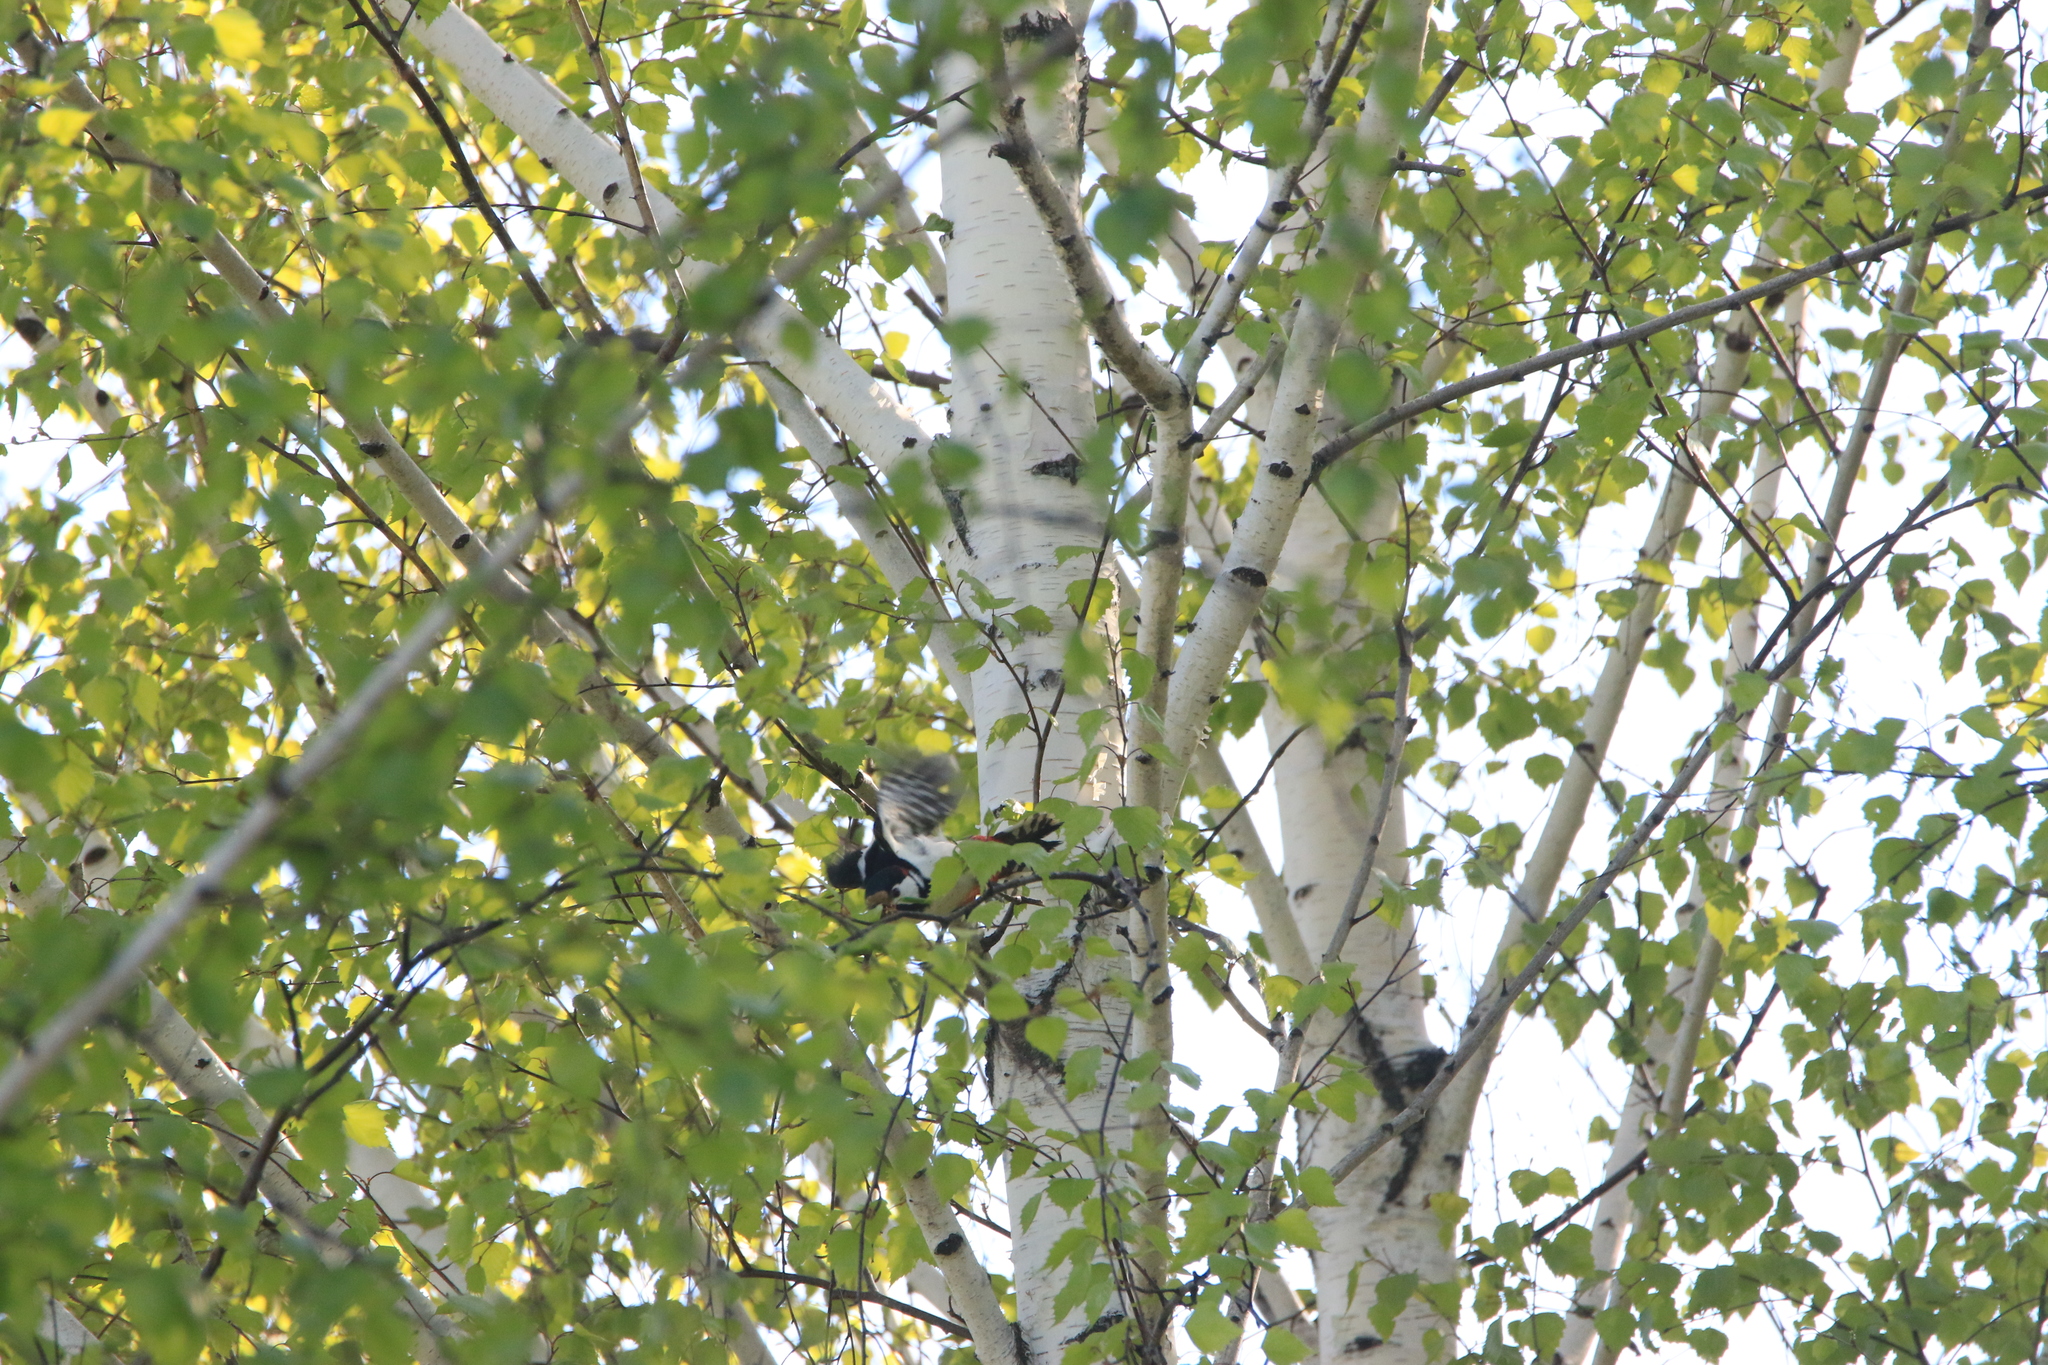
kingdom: Animalia
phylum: Chordata
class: Aves
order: Piciformes
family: Picidae
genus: Dendrocopos
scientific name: Dendrocopos major
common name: Great spotted woodpecker
